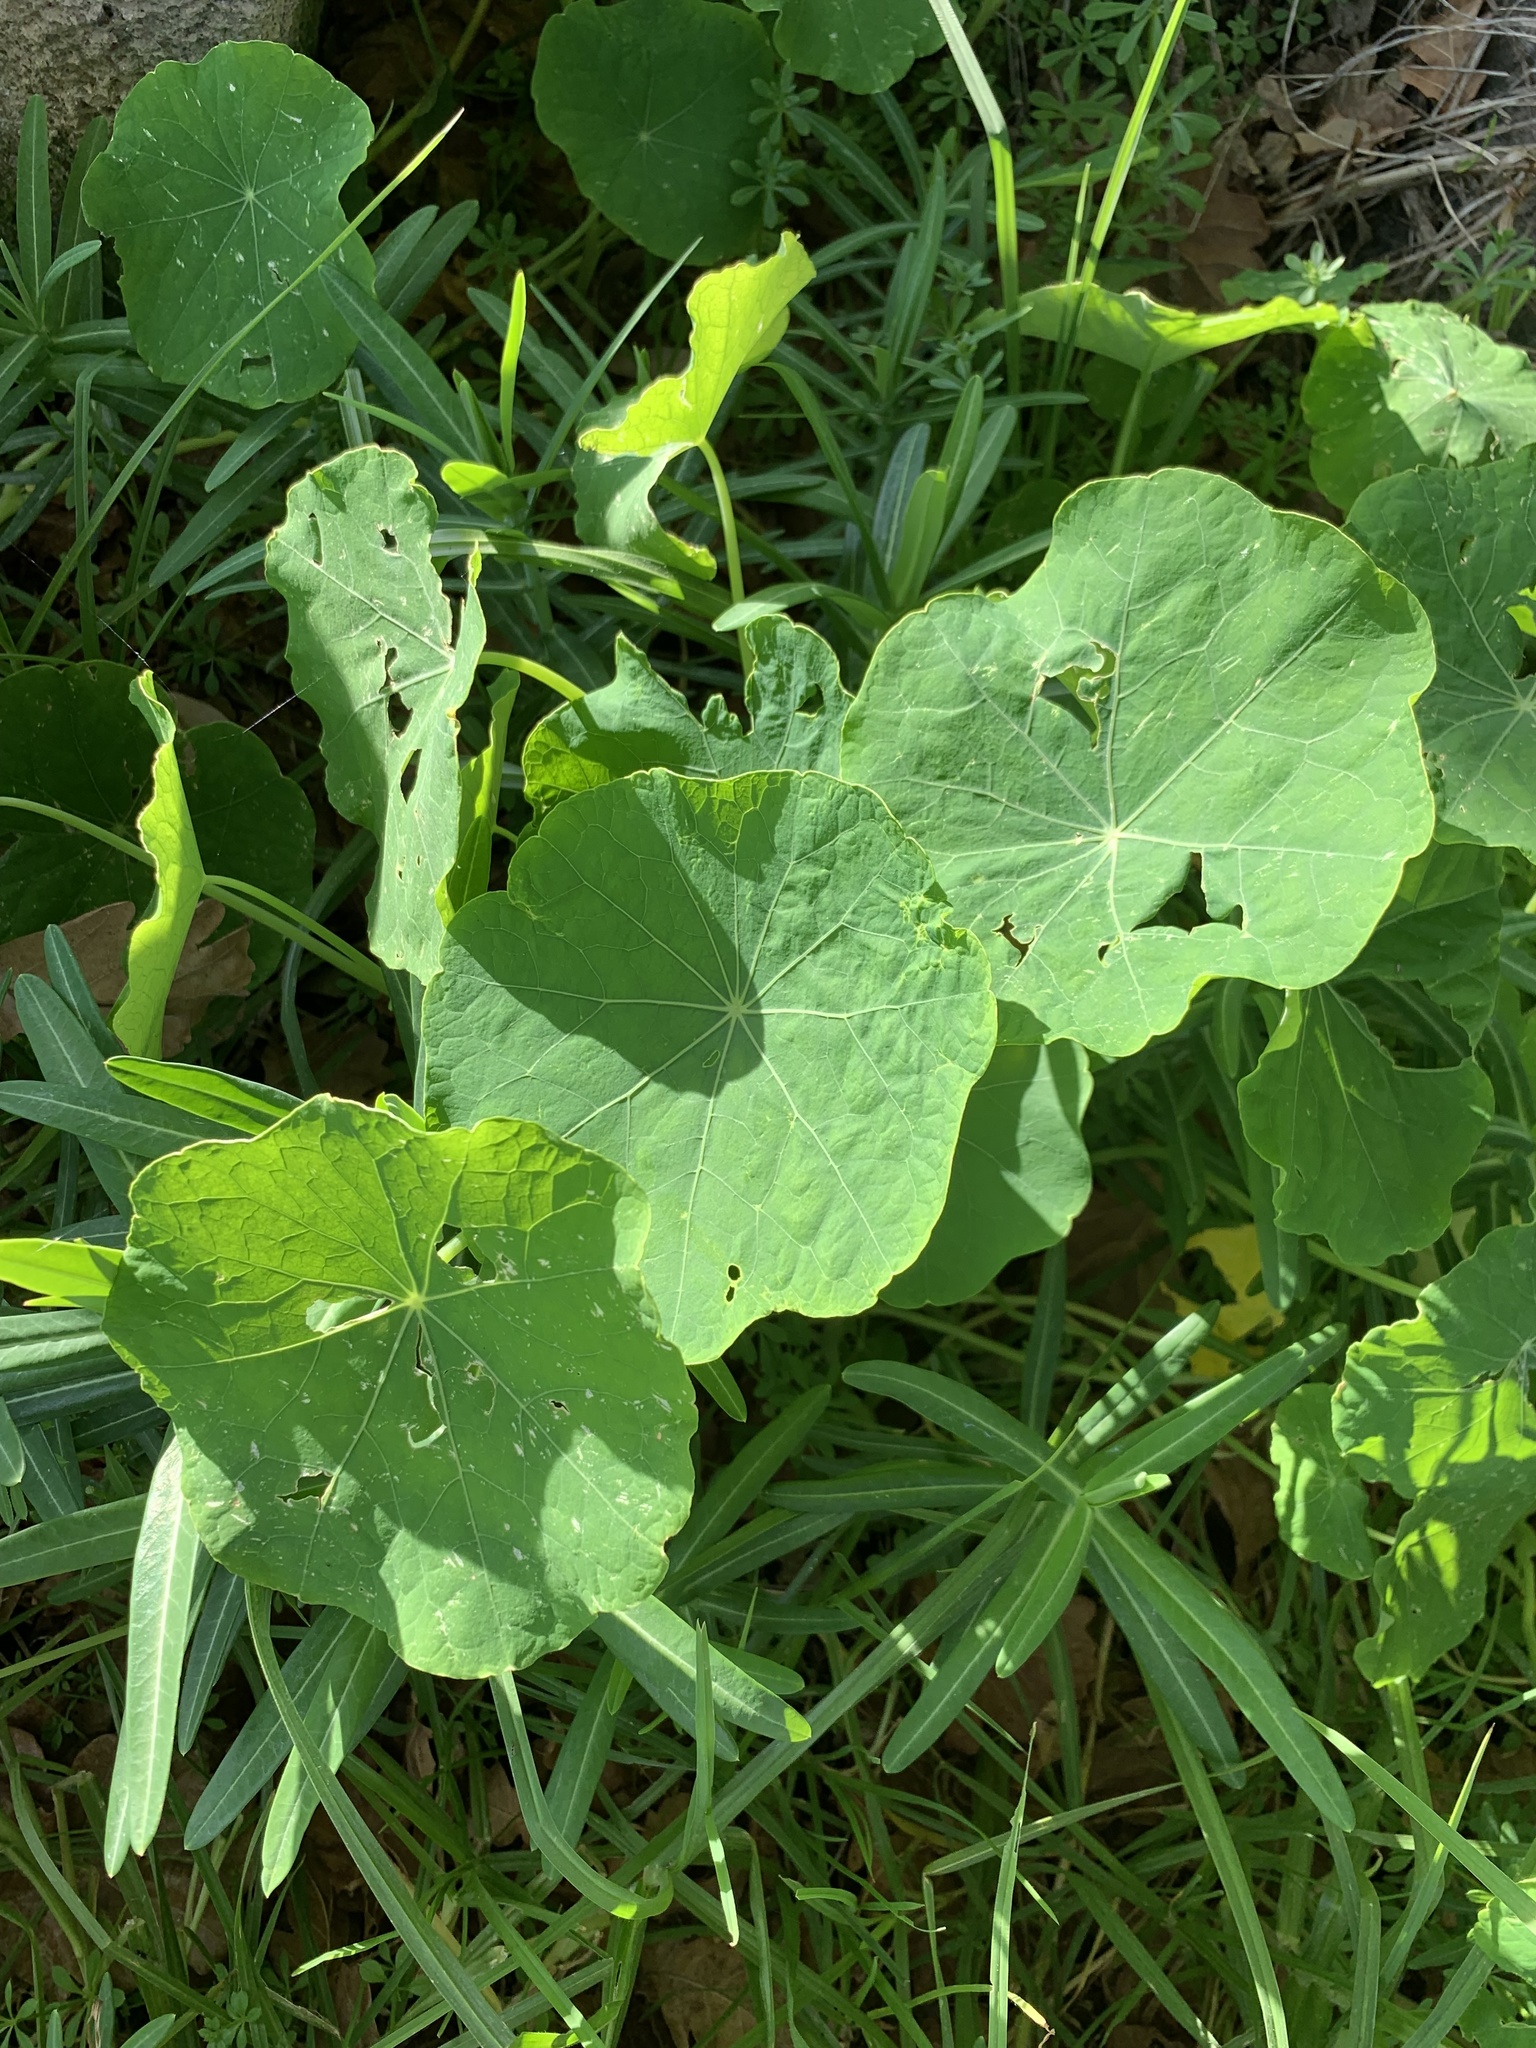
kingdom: Plantae
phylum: Tracheophyta
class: Magnoliopsida
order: Brassicales
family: Tropaeolaceae
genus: Tropaeolum
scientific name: Tropaeolum majus
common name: Nasturtium
